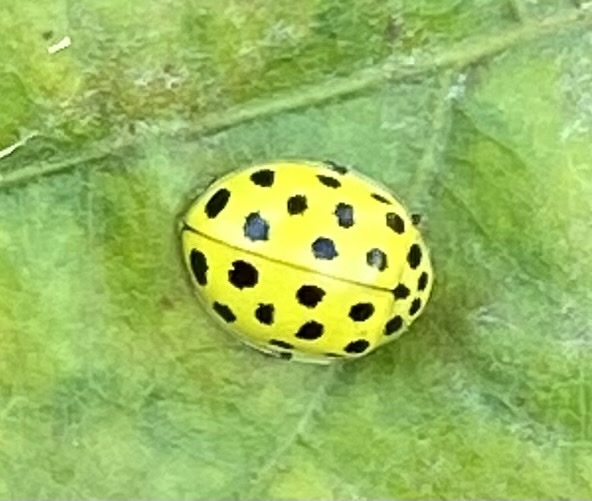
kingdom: Animalia
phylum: Arthropoda
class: Insecta
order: Coleoptera
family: Coccinellidae
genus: Psyllobora
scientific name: Psyllobora vigintiduopunctata
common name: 22-spot ladybird
